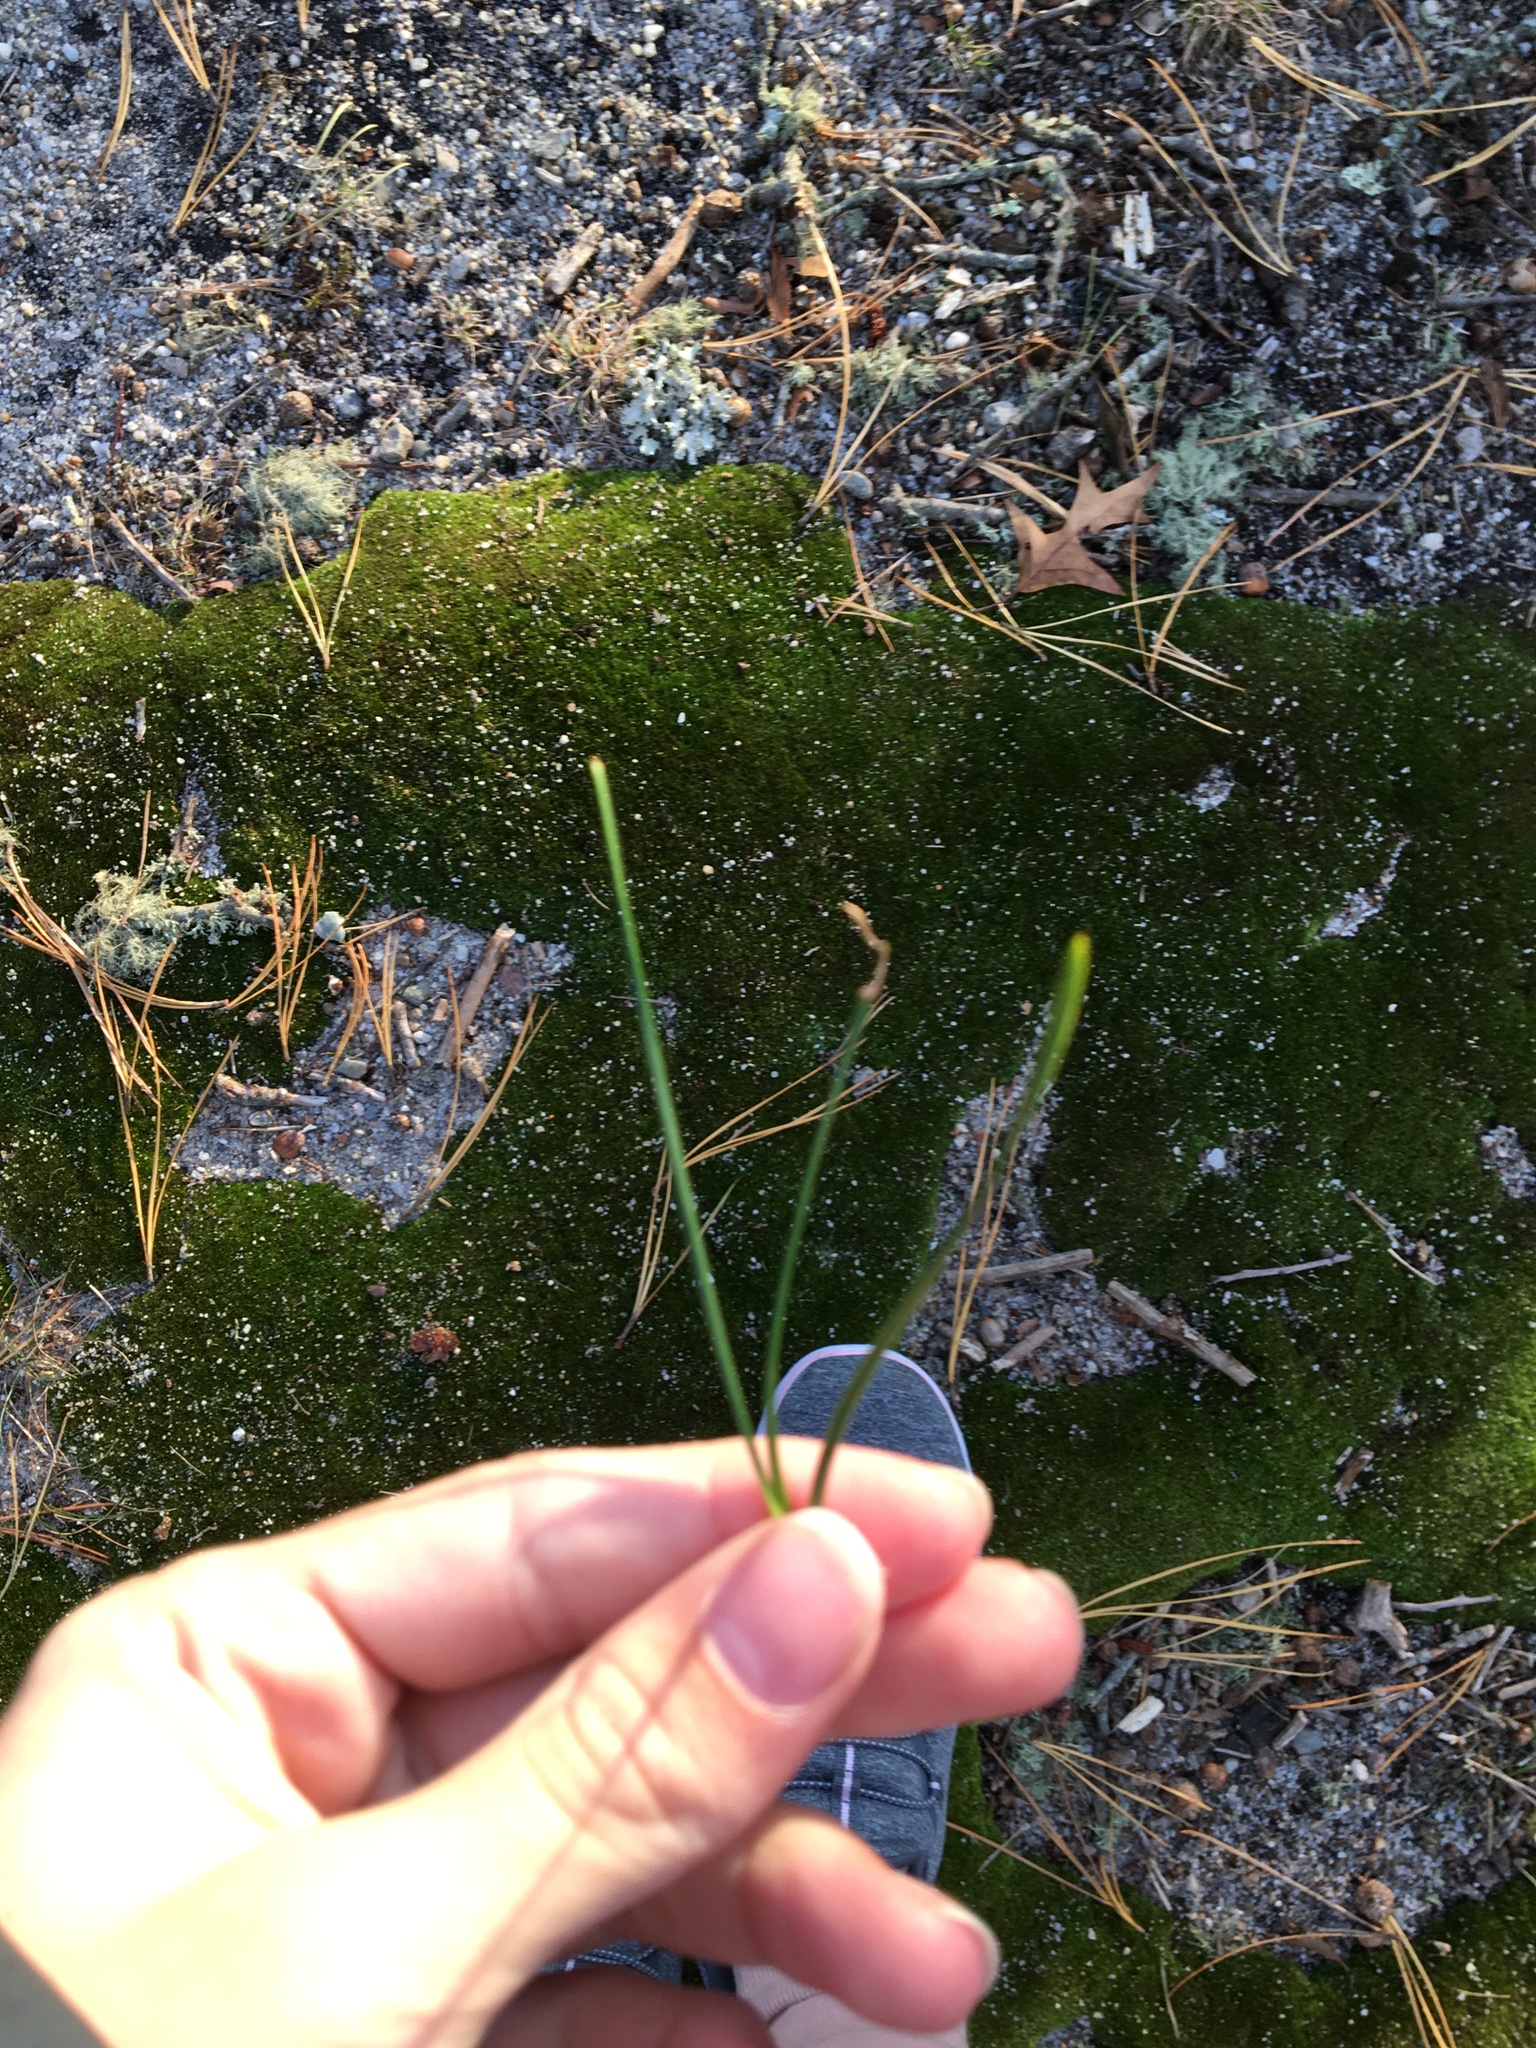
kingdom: Plantae
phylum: Tracheophyta
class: Pinopsida
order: Pinales
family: Pinaceae
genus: Pinus
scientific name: Pinus rigida
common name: Pitch pine
